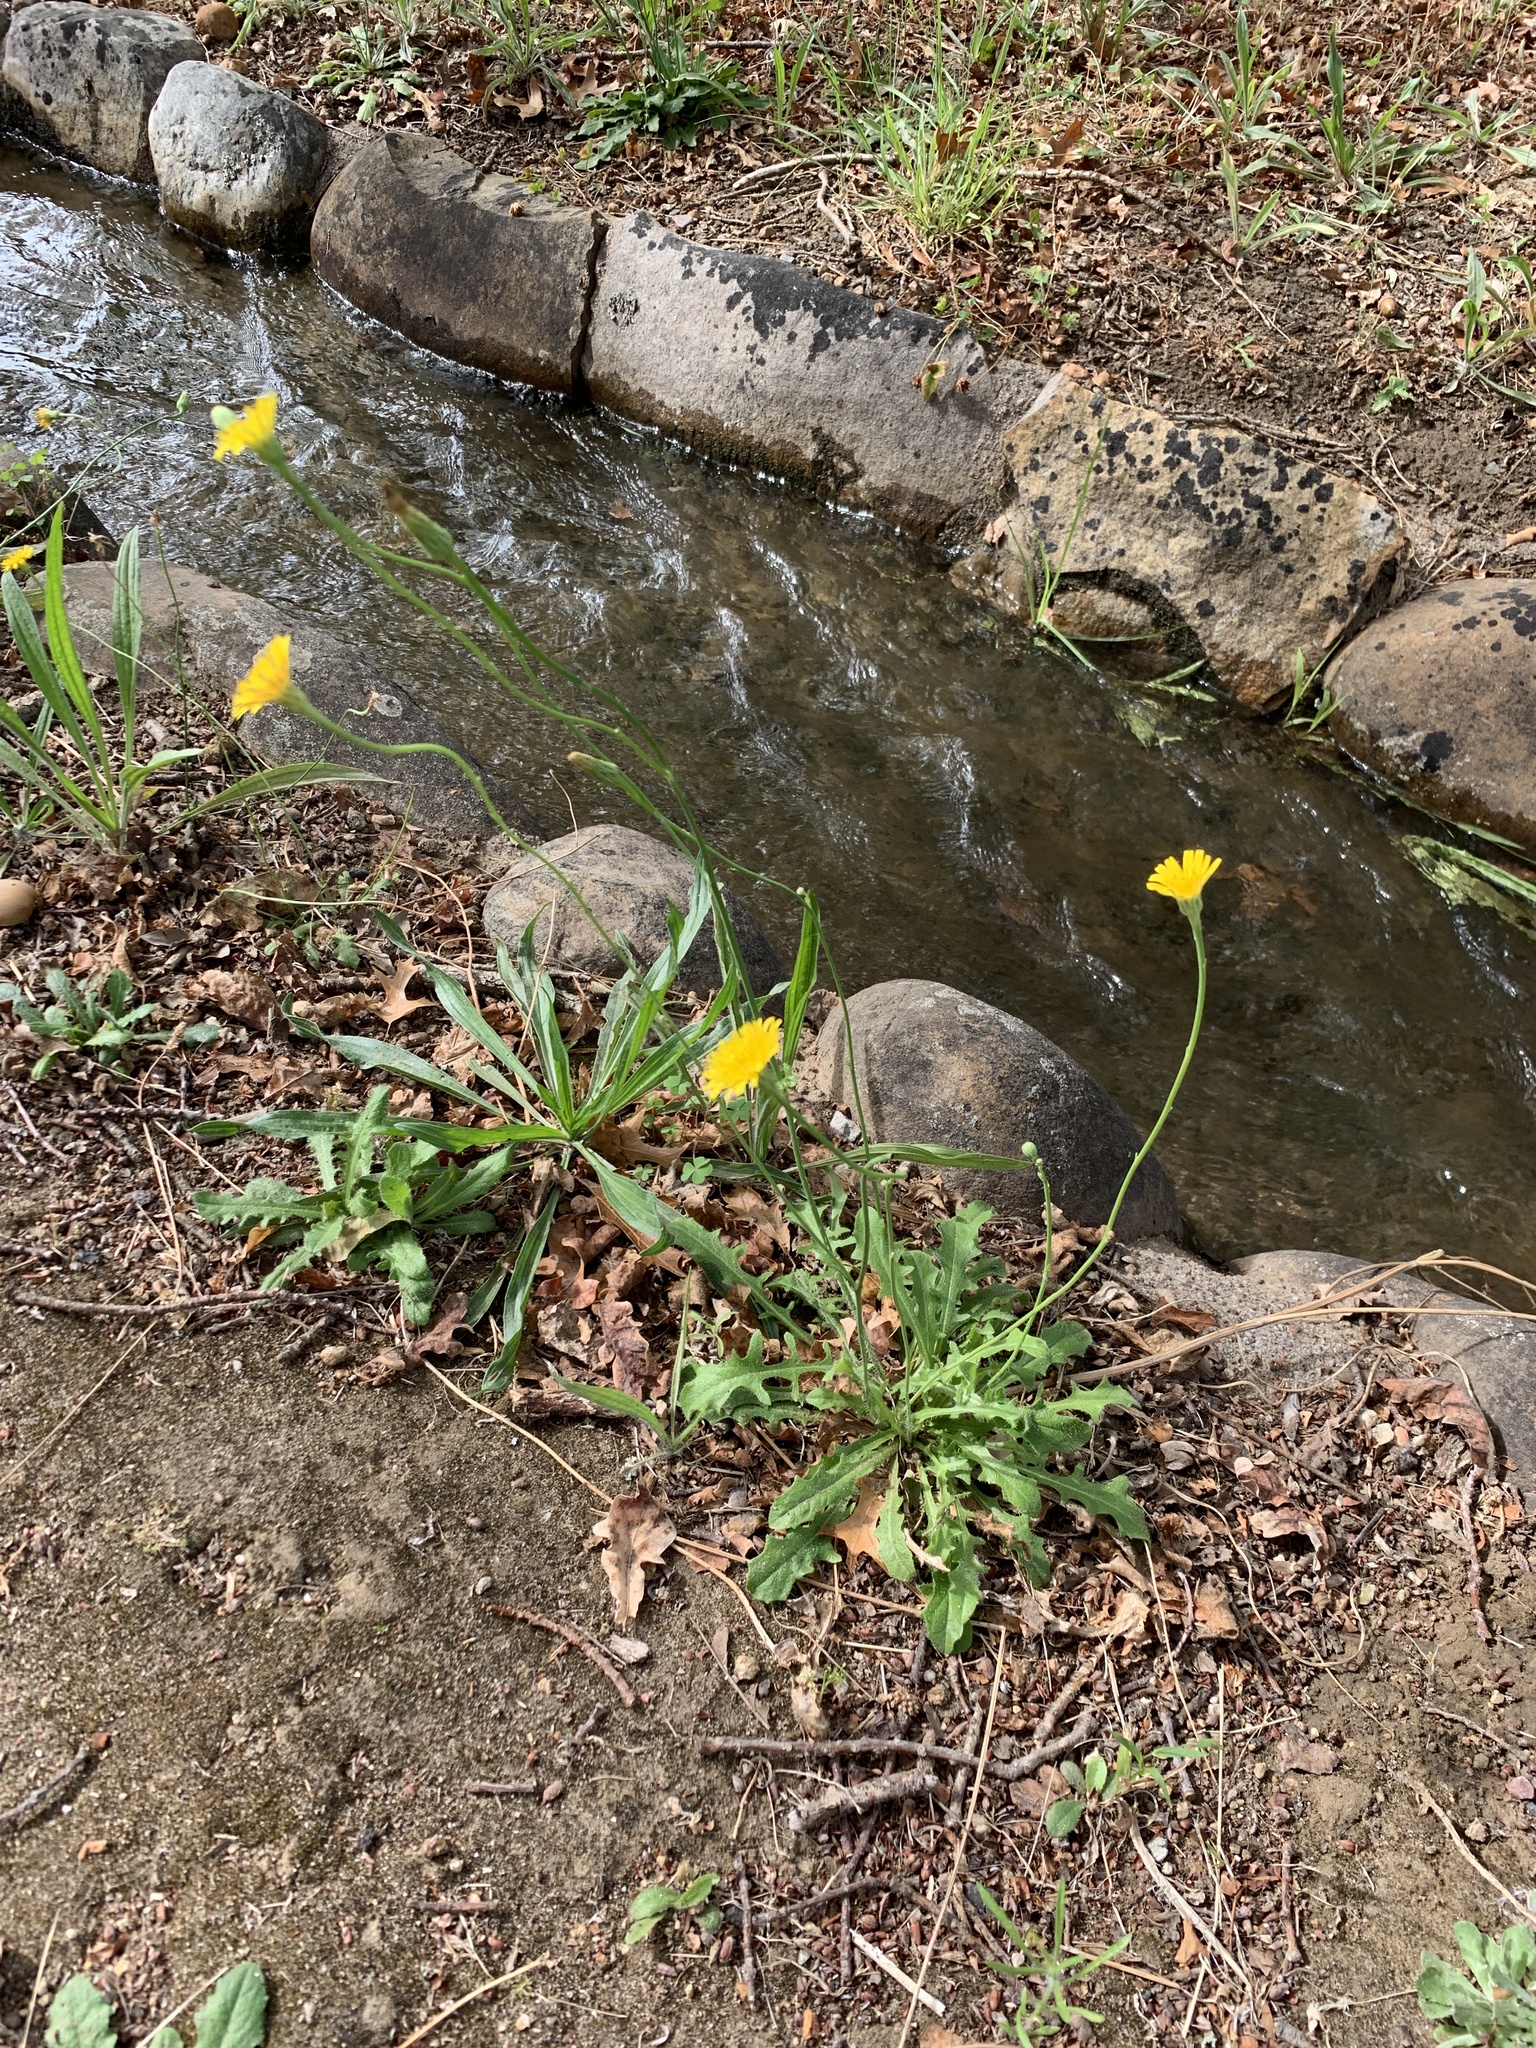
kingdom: Plantae
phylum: Tracheophyta
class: Magnoliopsida
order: Asterales
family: Asteraceae
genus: Hypochaeris
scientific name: Hypochaeris radicata
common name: Flatweed
